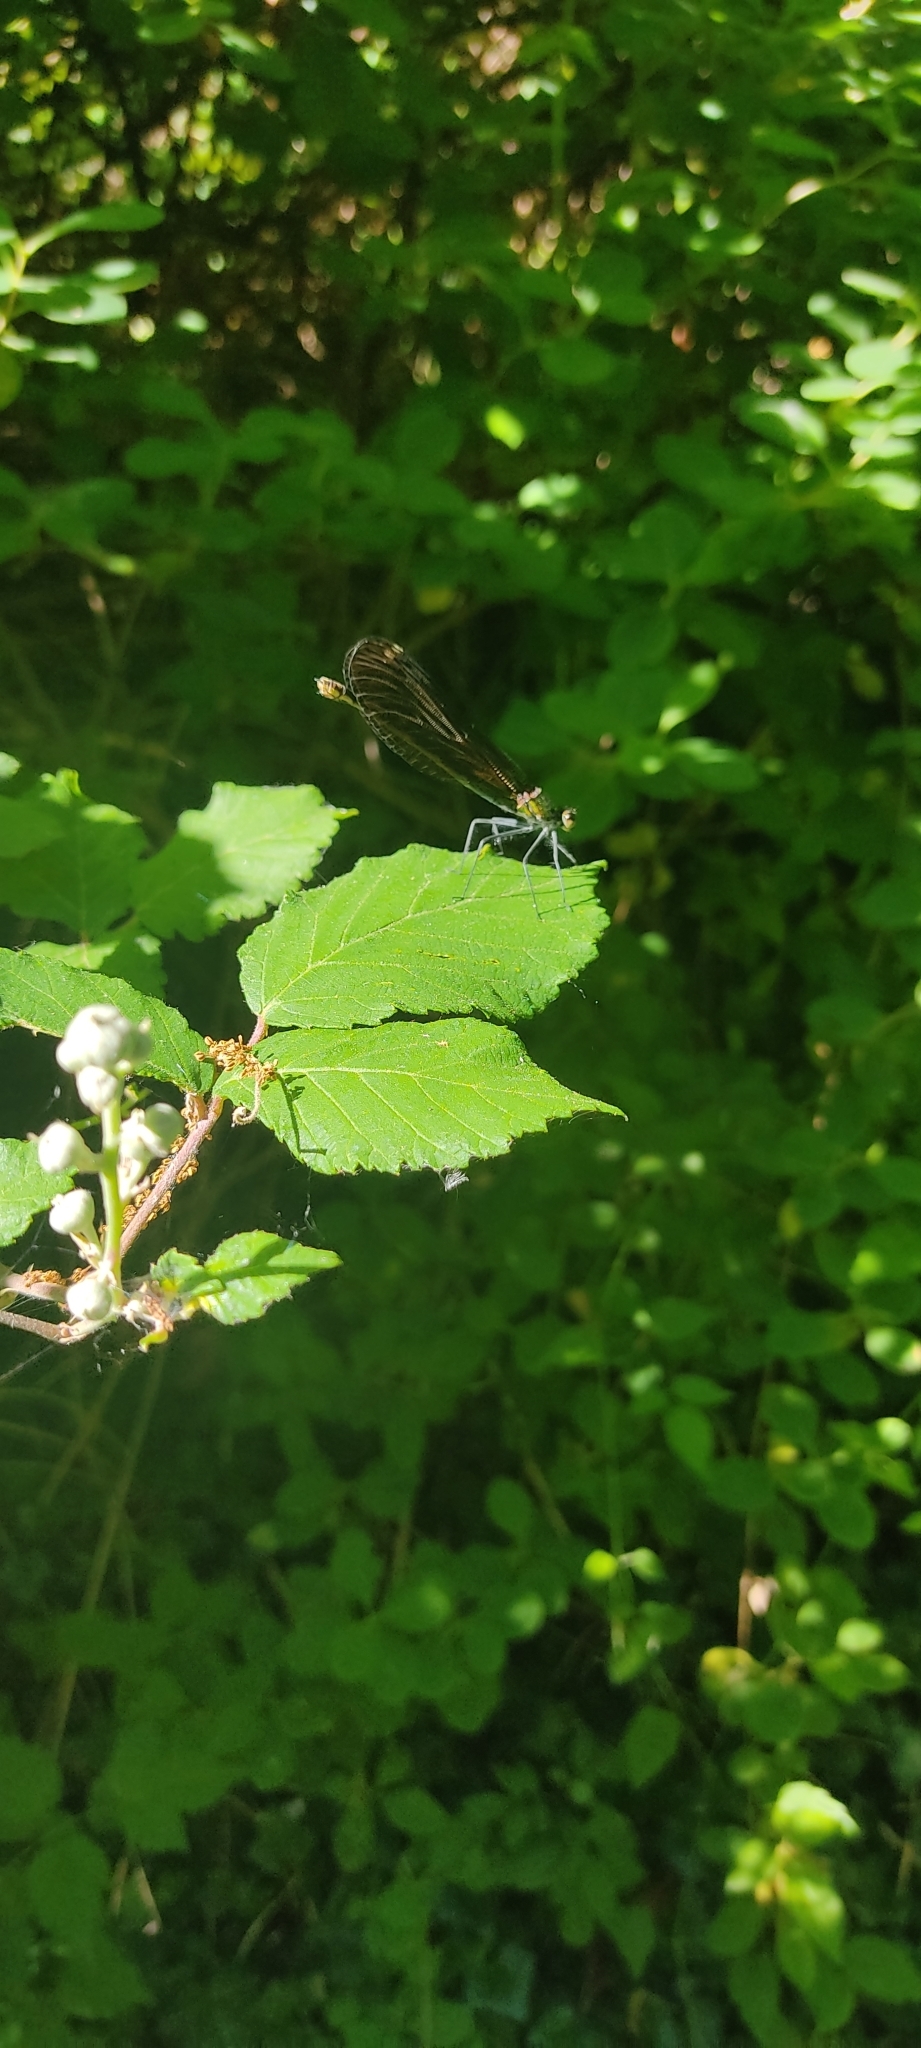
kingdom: Animalia
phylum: Arthropoda
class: Insecta
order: Odonata
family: Calopterygidae
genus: Calopteryx
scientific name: Calopteryx virgo
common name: Beautiful demoiselle
